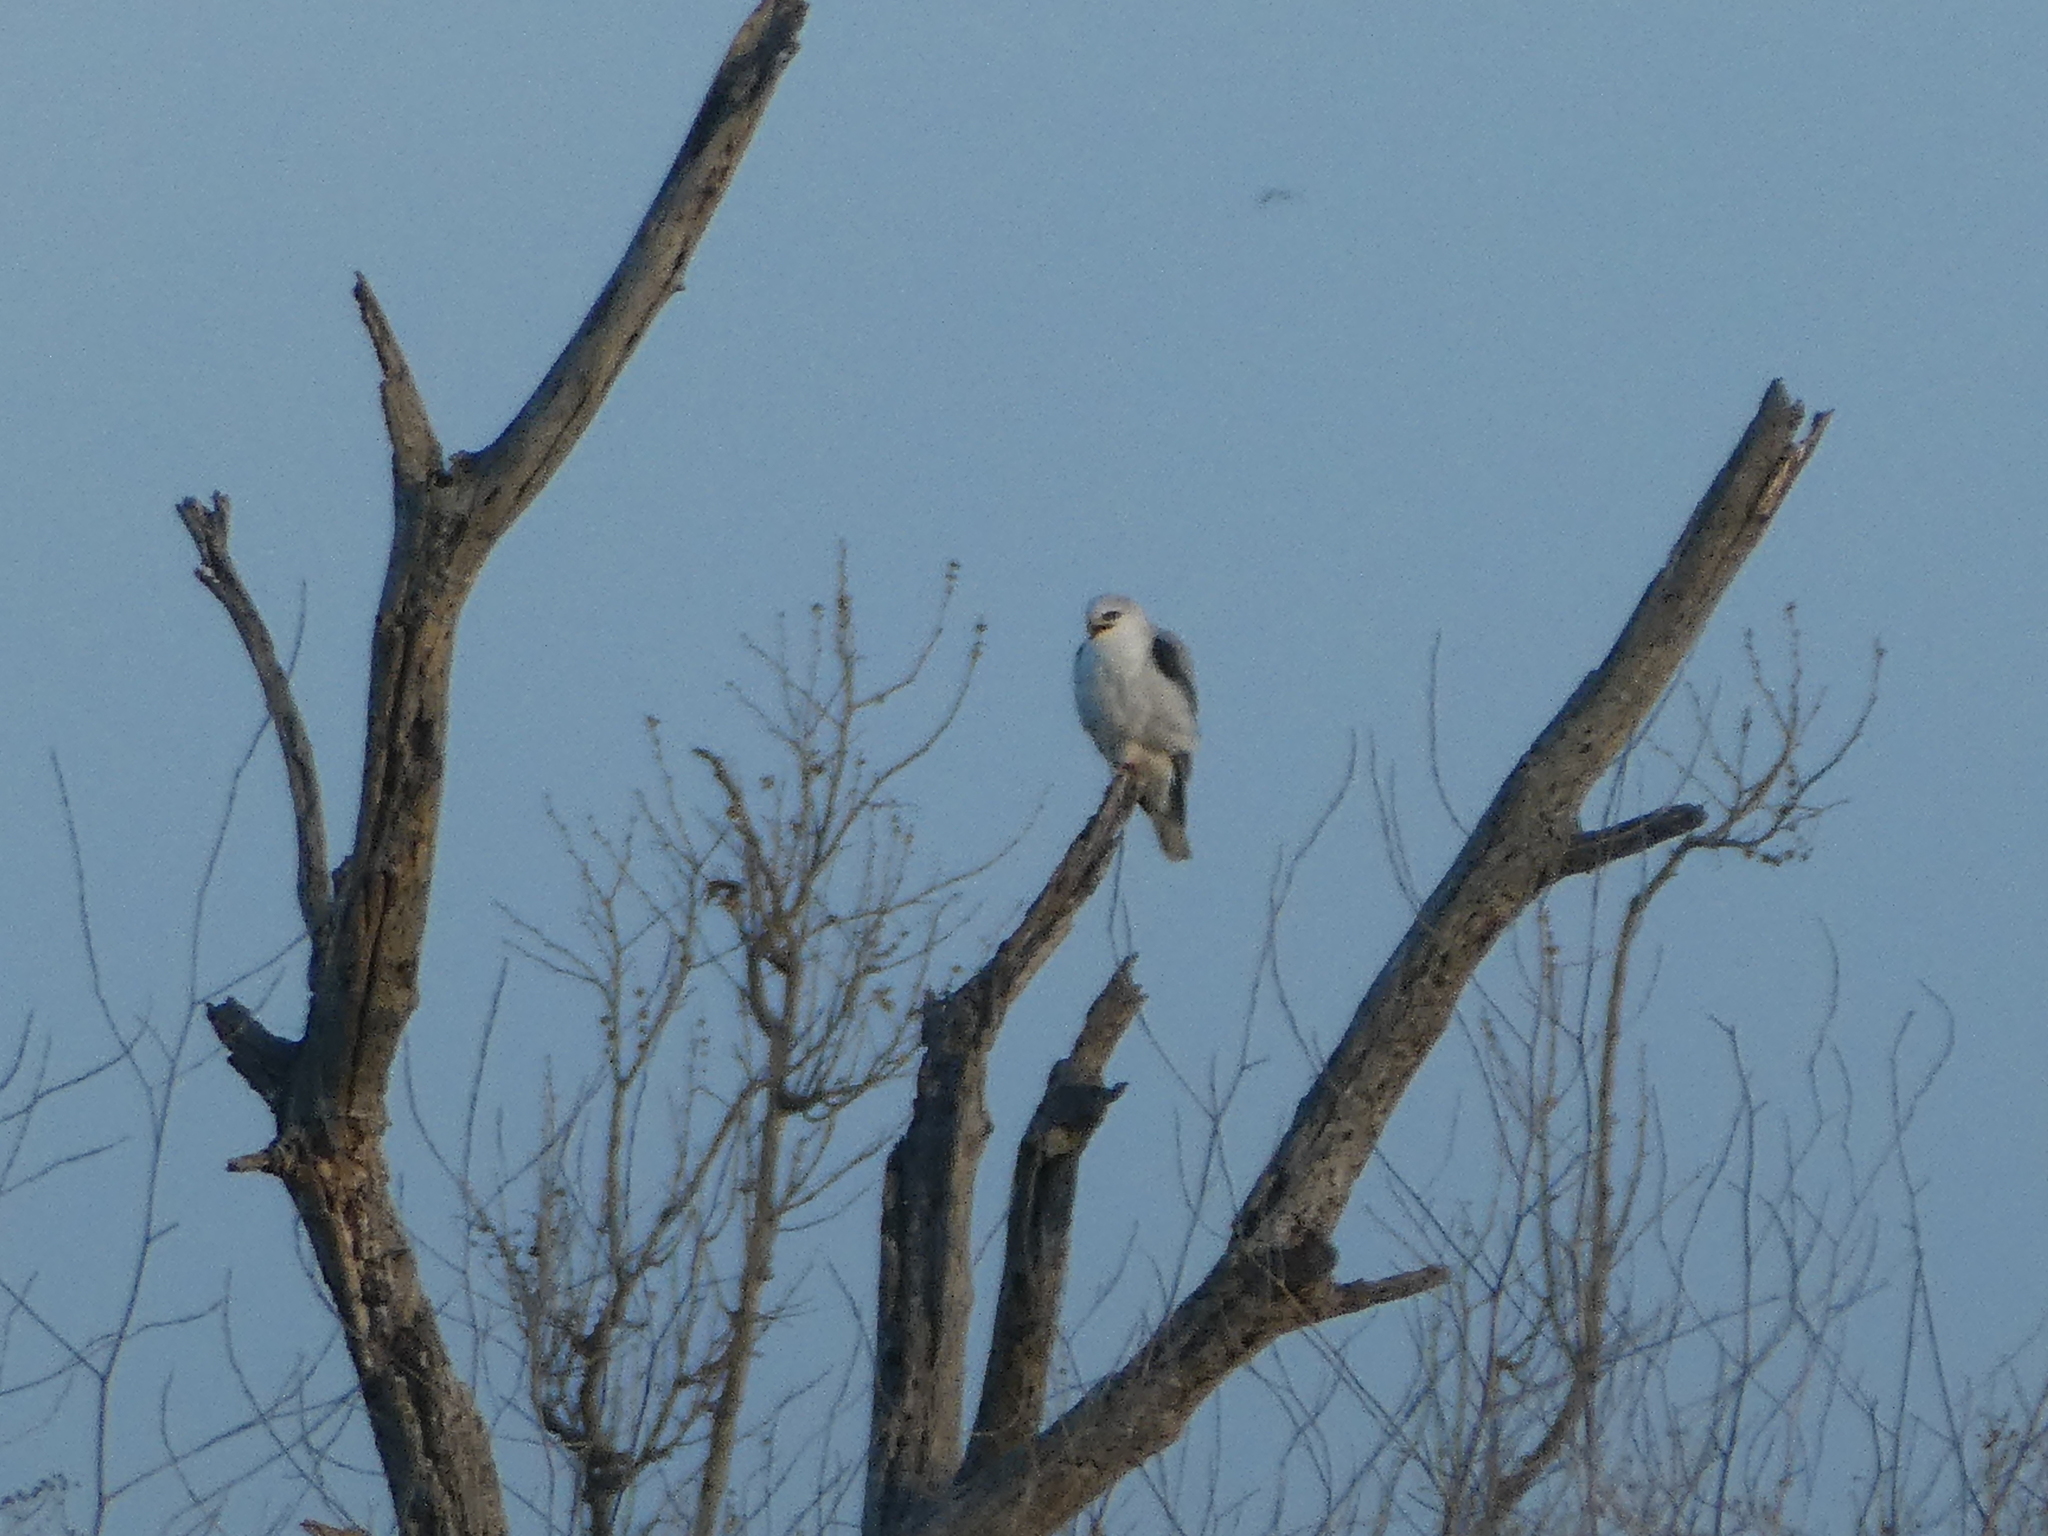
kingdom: Animalia
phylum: Chordata
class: Aves
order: Accipitriformes
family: Accipitridae
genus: Elanus
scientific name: Elanus leucurus
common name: White-tailed kite
